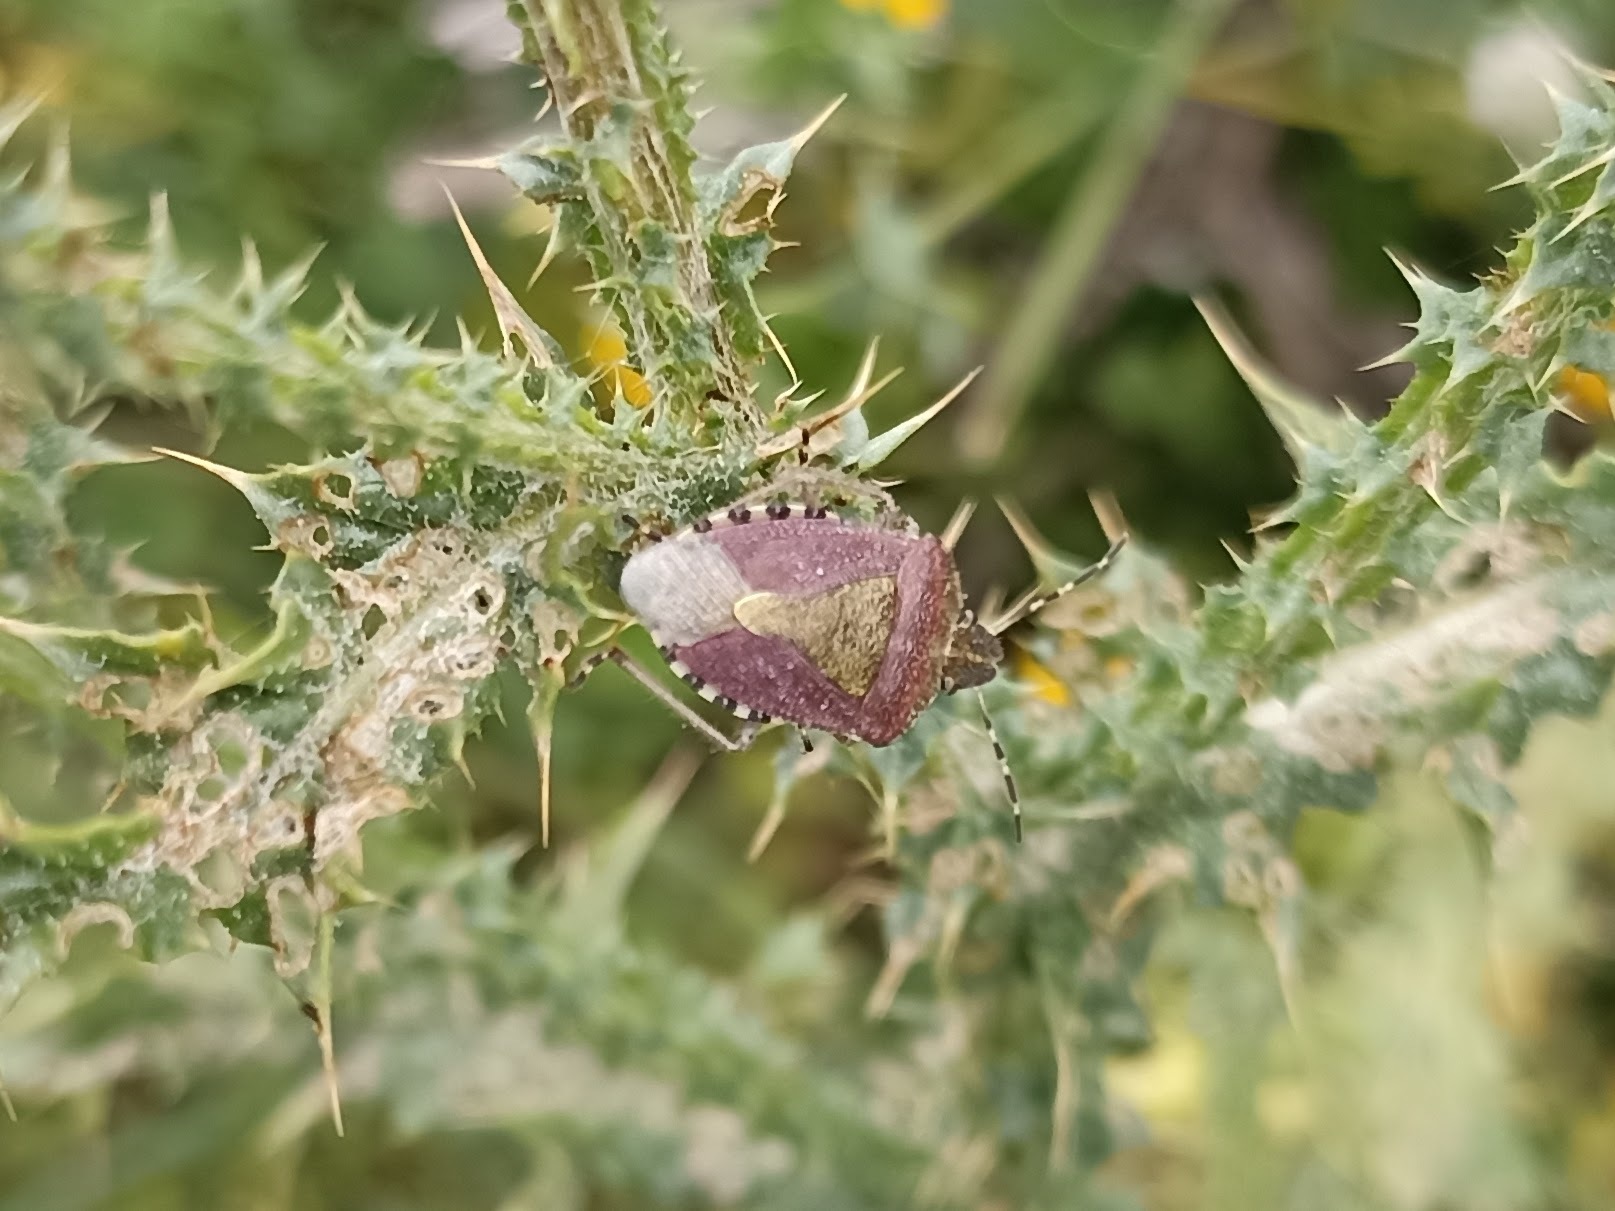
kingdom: Animalia
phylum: Arthropoda
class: Insecta
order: Hemiptera
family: Pentatomidae
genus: Dolycoris
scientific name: Dolycoris baccarum
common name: Sloe bug
